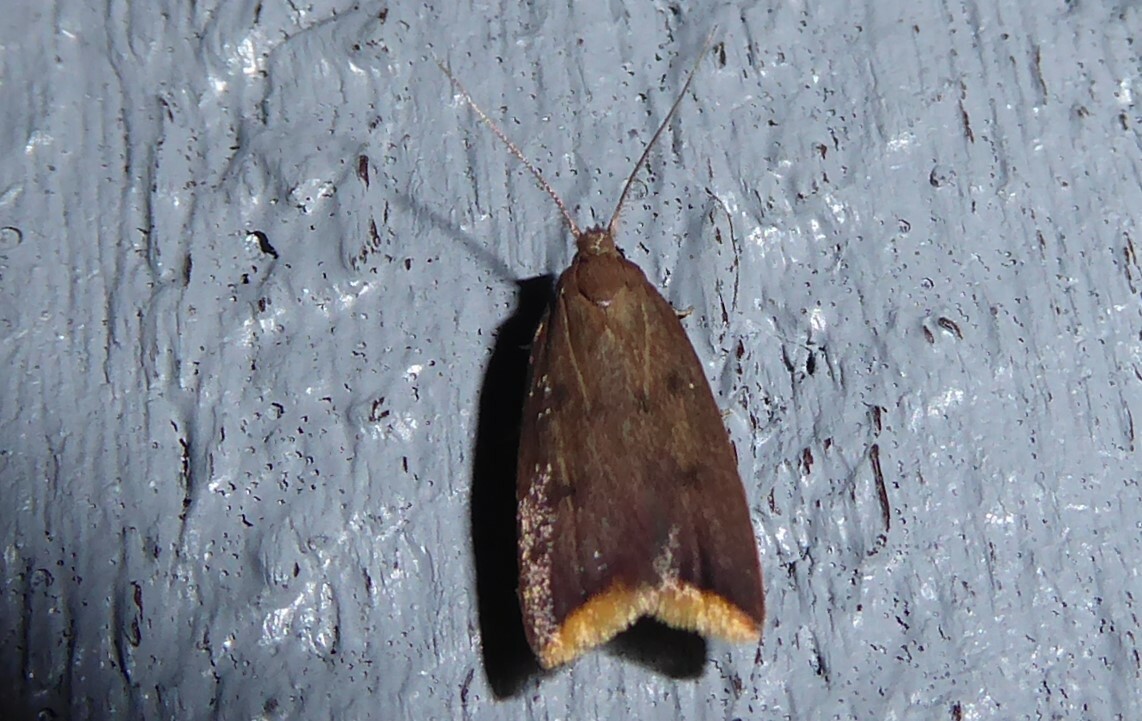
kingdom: Animalia
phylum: Arthropoda
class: Insecta
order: Lepidoptera
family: Oecophoridae
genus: Tachystola
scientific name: Tachystola acroxantha
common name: Ruddy streak
